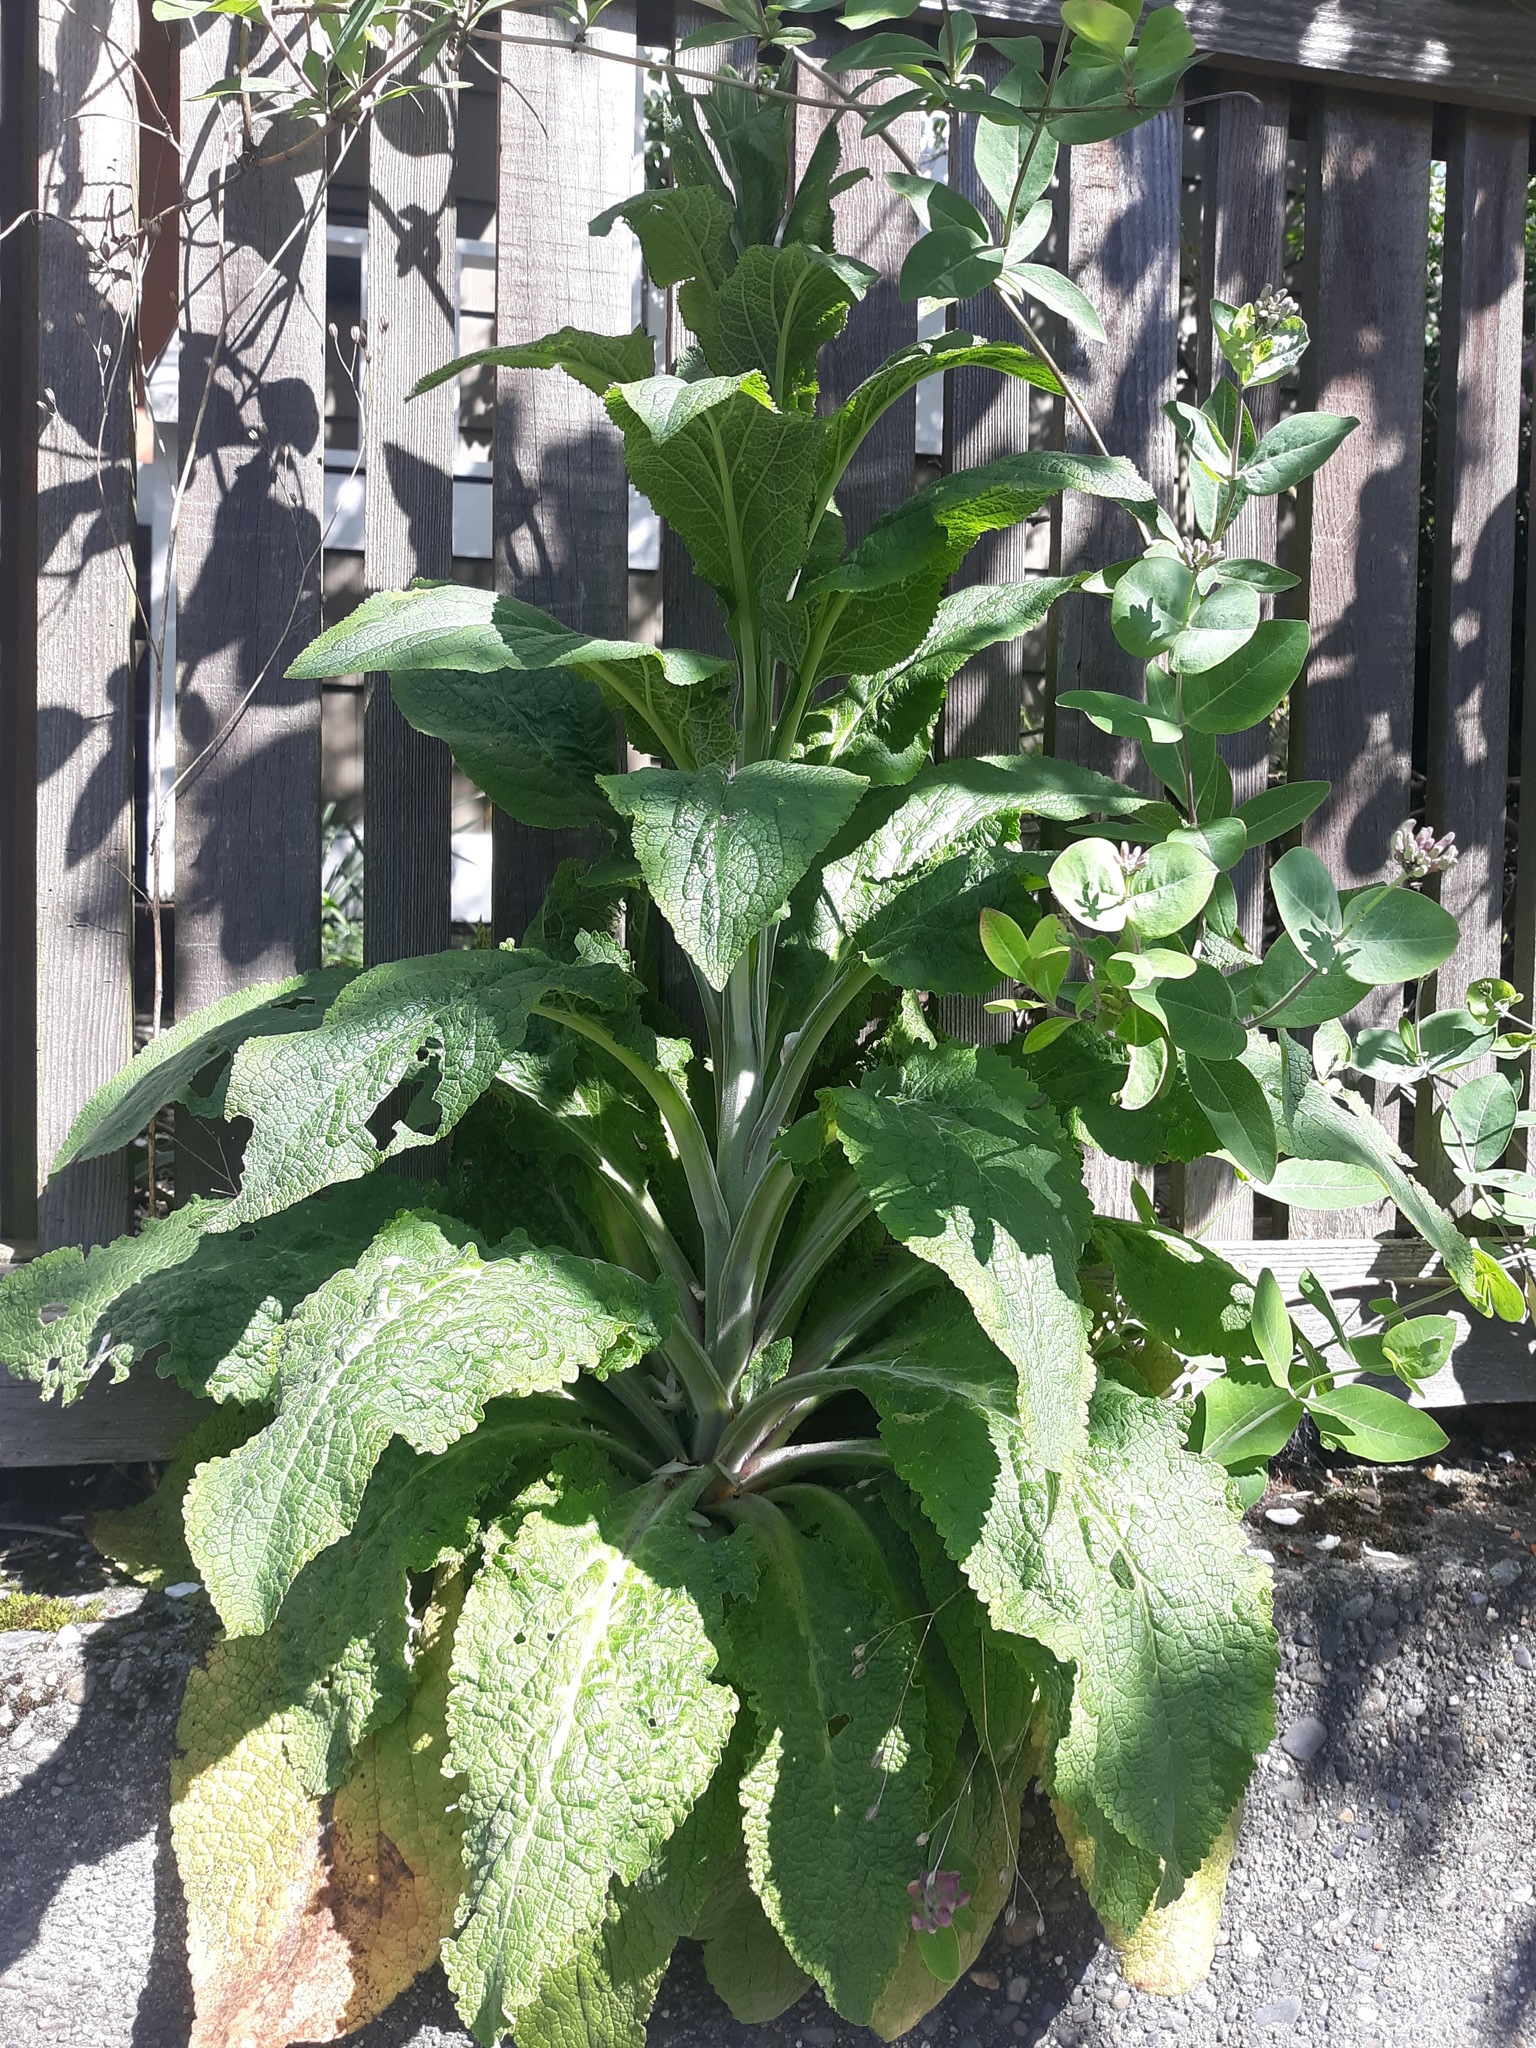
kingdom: Plantae
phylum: Tracheophyta
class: Magnoliopsida
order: Lamiales
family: Plantaginaceae
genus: Digitalis
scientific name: Digitalis purpurea
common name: Foxglove
